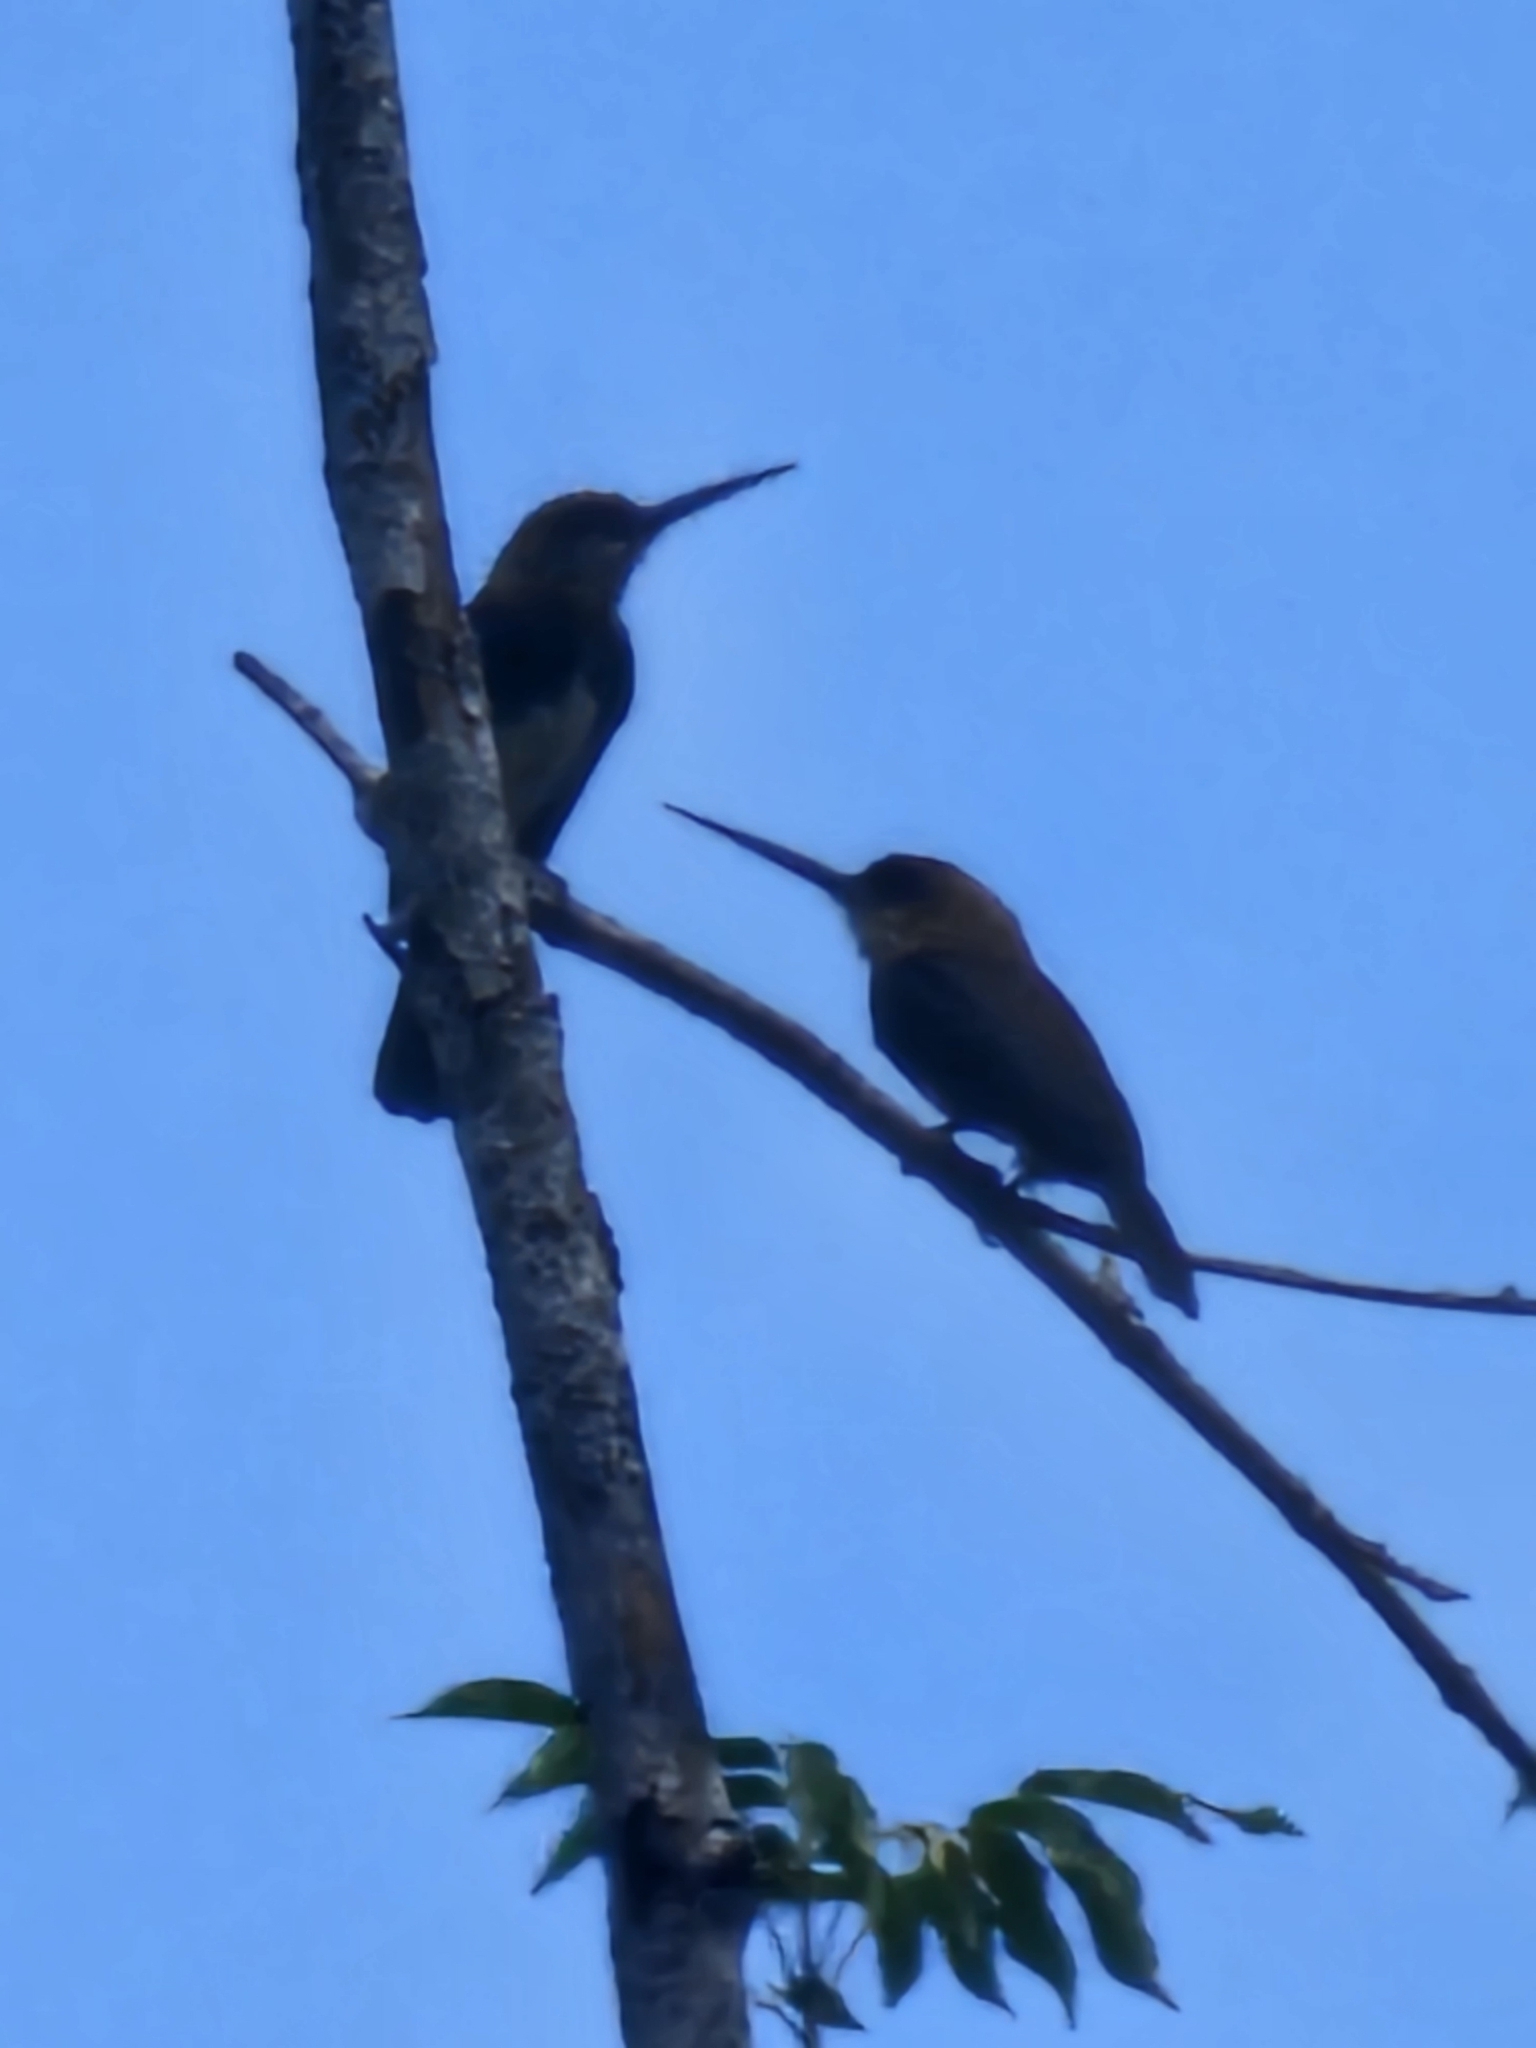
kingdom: Animalia
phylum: Chordata
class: Aves
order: Piciformes
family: Galbulidae
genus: Brachygalba
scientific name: Brachygalba lugubris
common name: Brown jacamar
